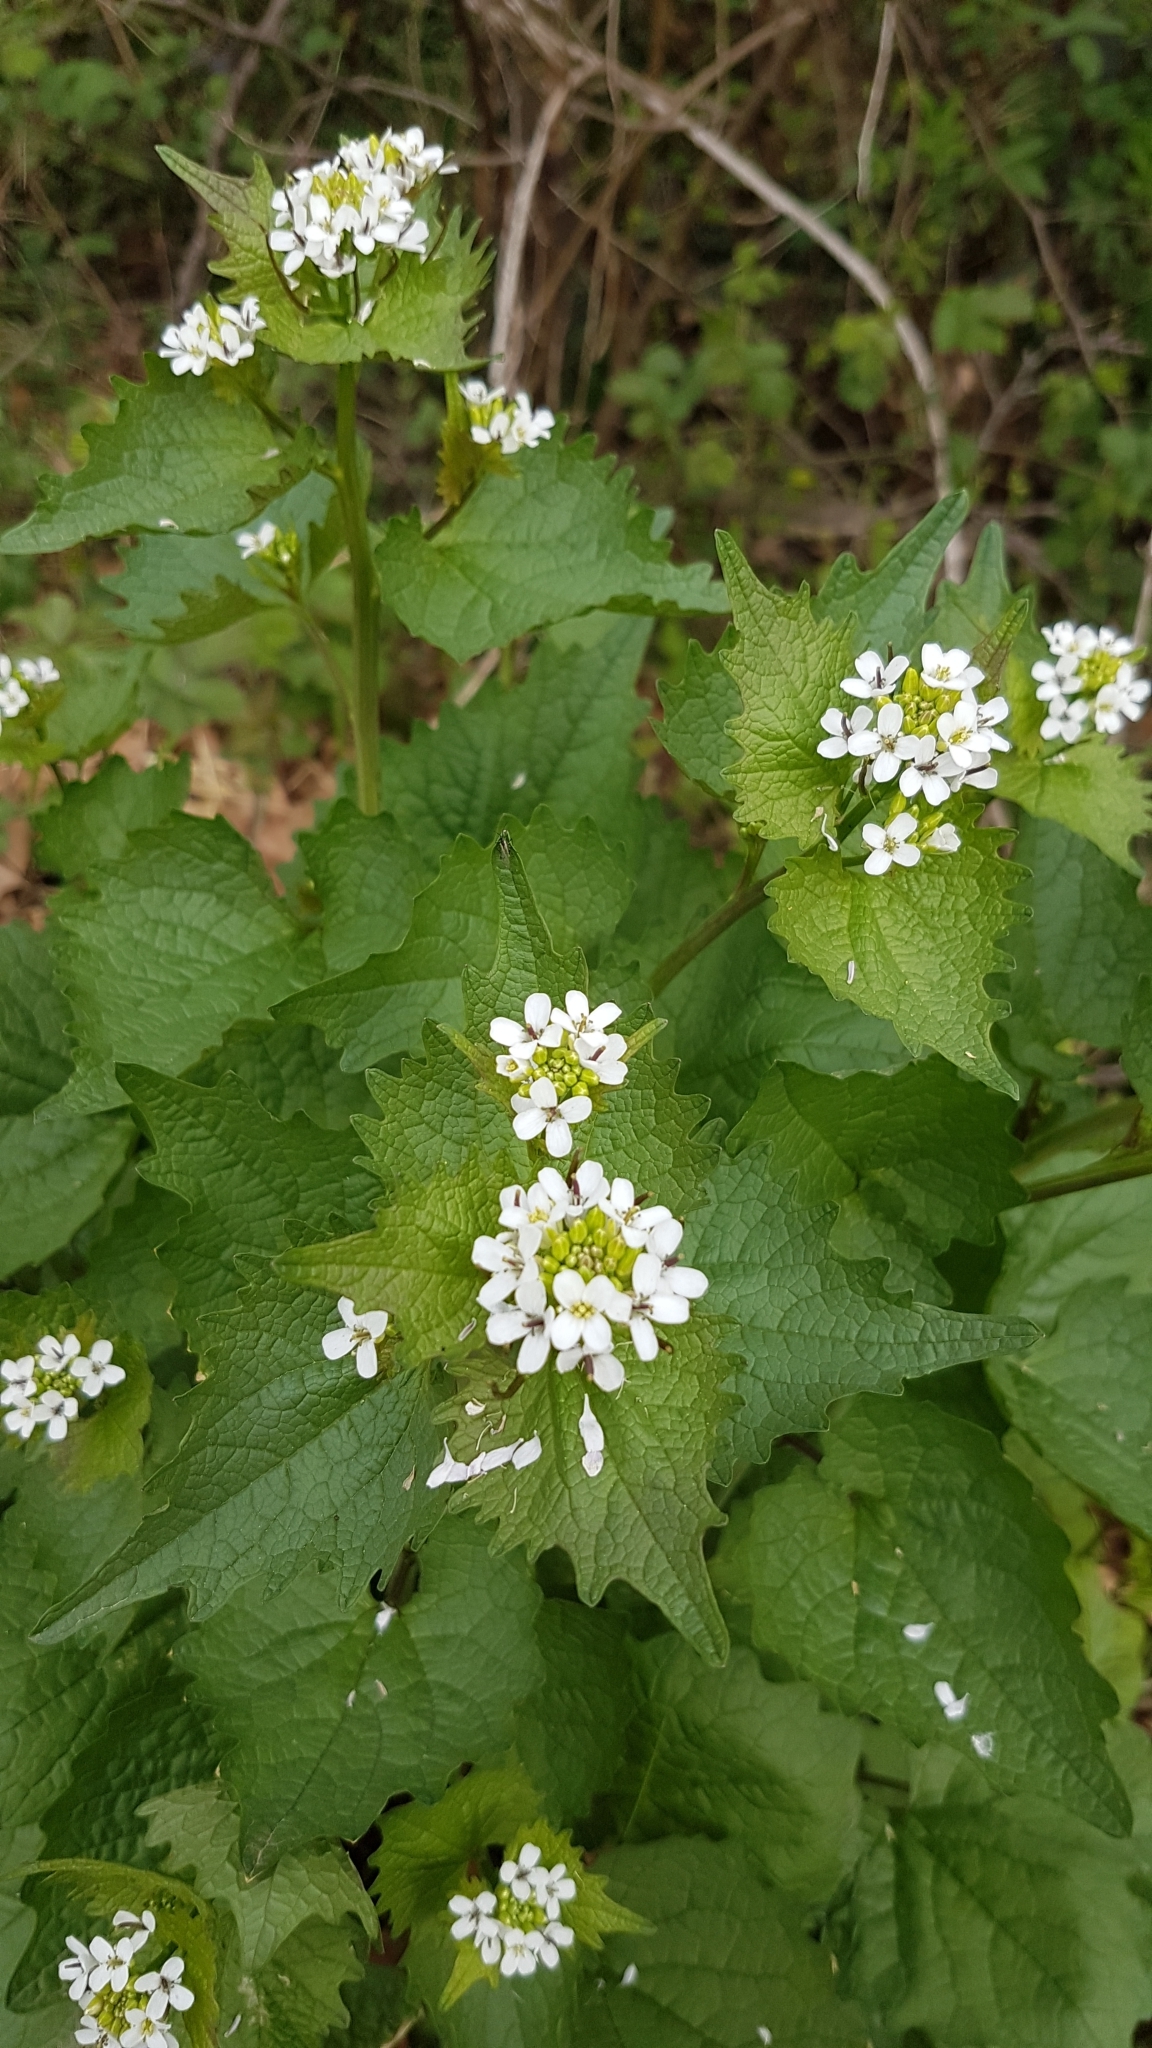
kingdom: Plantae
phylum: Tracheophyta
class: Magnoliopsida
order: Brassicales
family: Brassicaceae
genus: Alliaria
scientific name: Alliaria petiolata
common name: Garlic mustard
